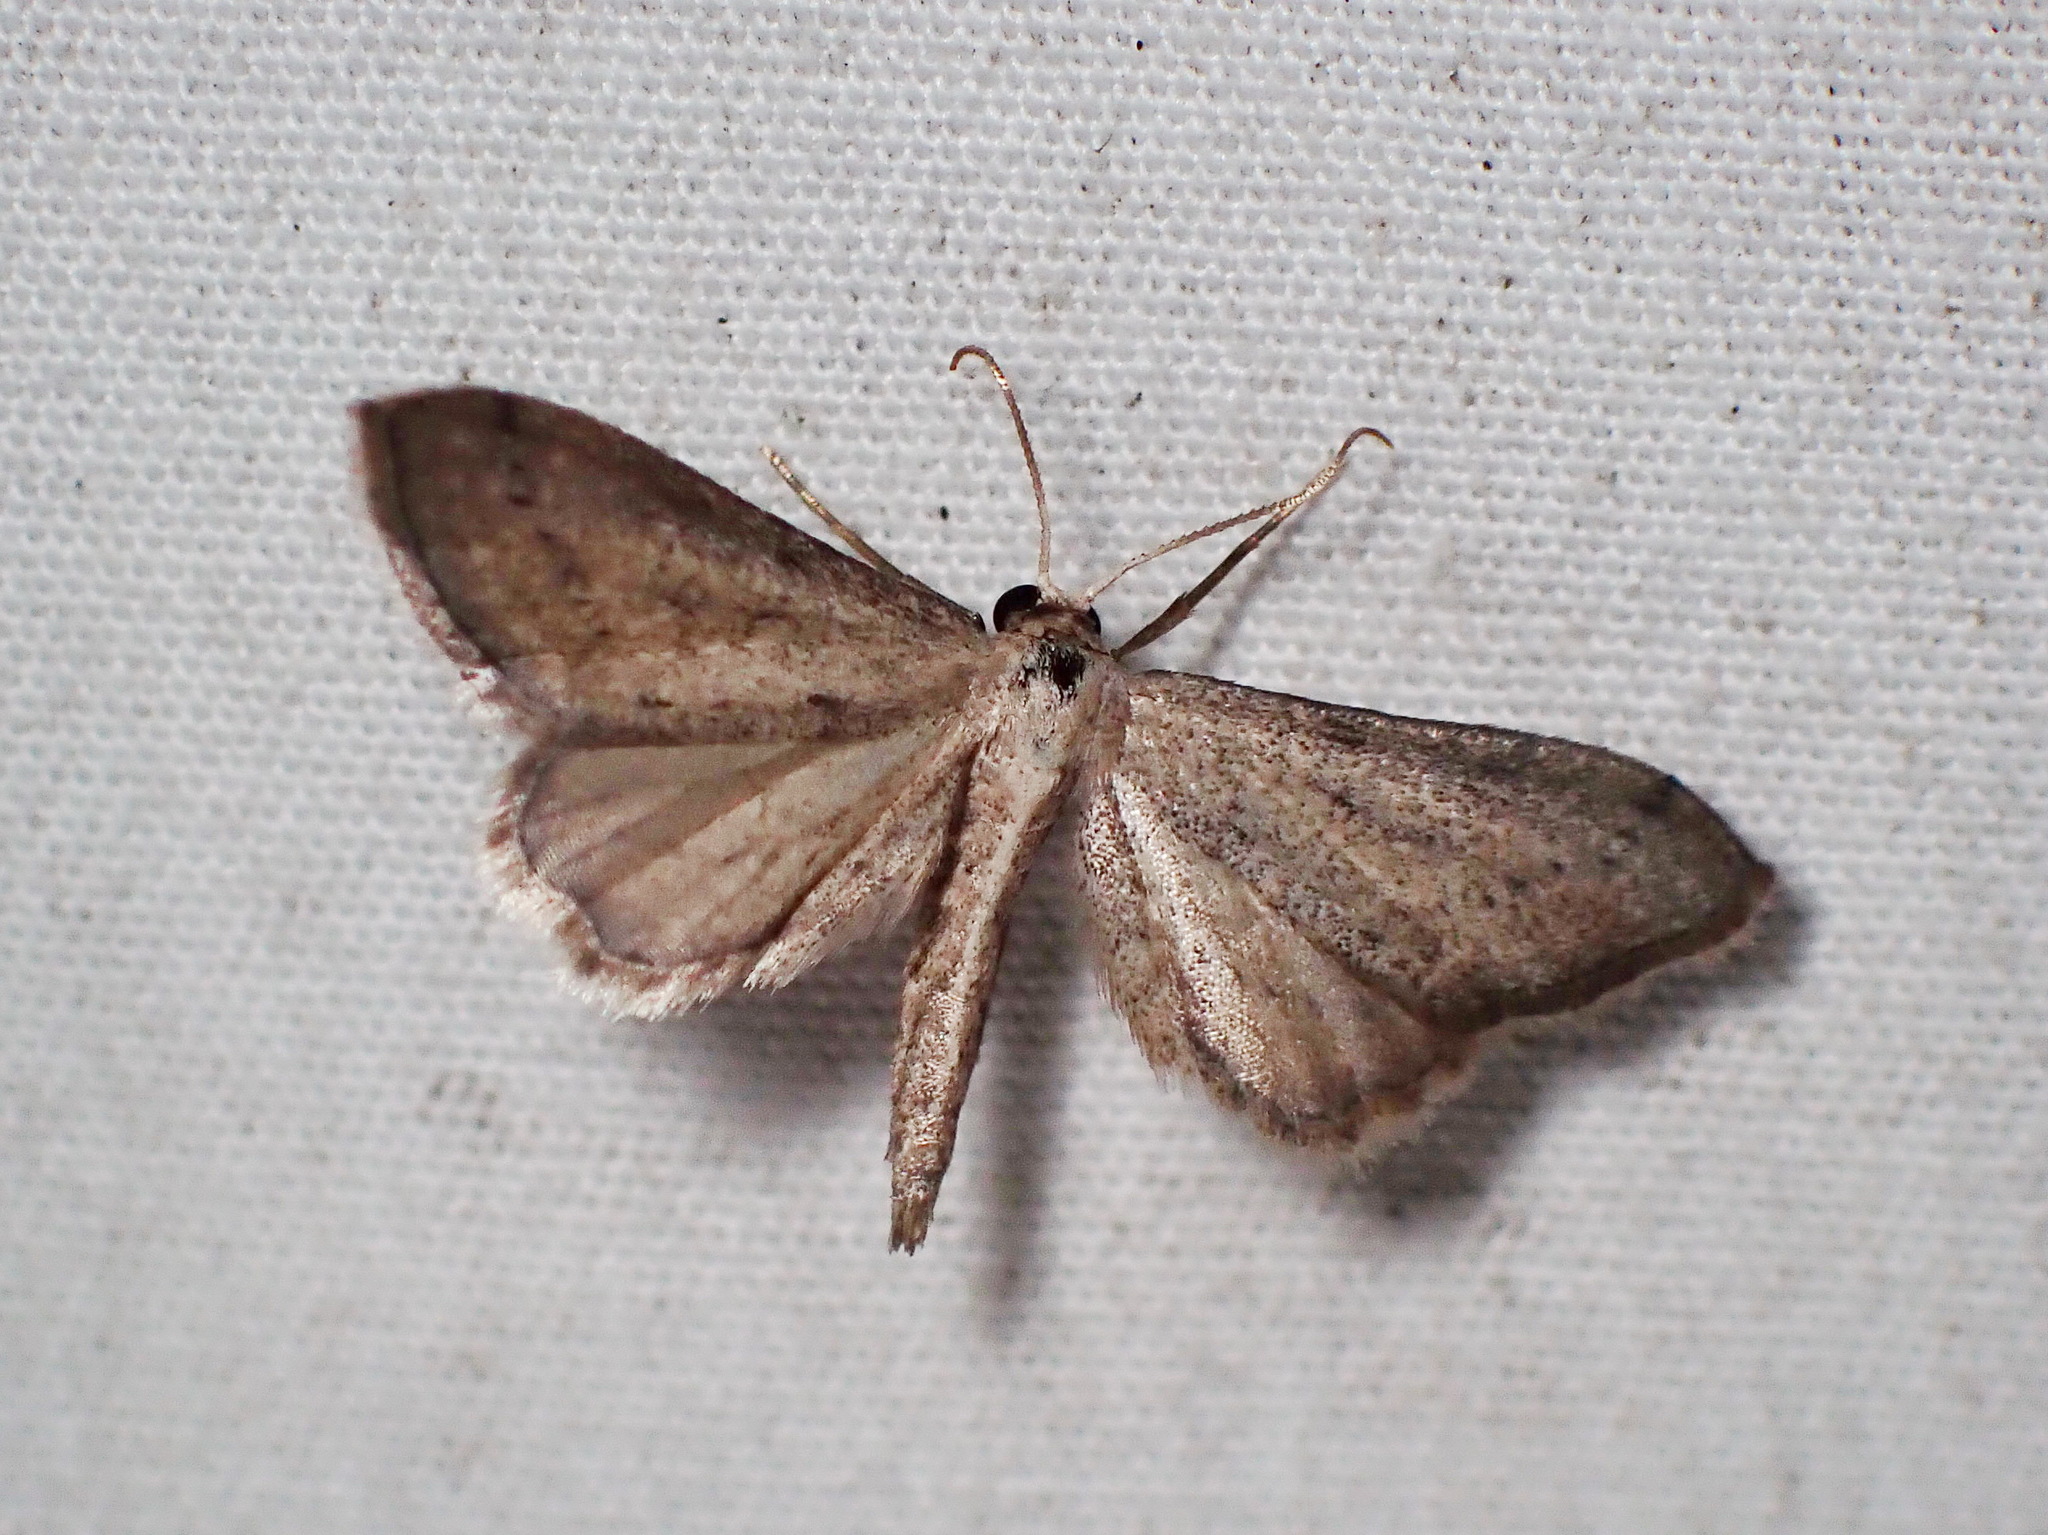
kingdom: Animalia
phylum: Arthropoda
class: Insecta
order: Lepidoptera
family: Geometridae
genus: Euacidalia
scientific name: Euacidalia brownsvillea
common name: Cankerworm
